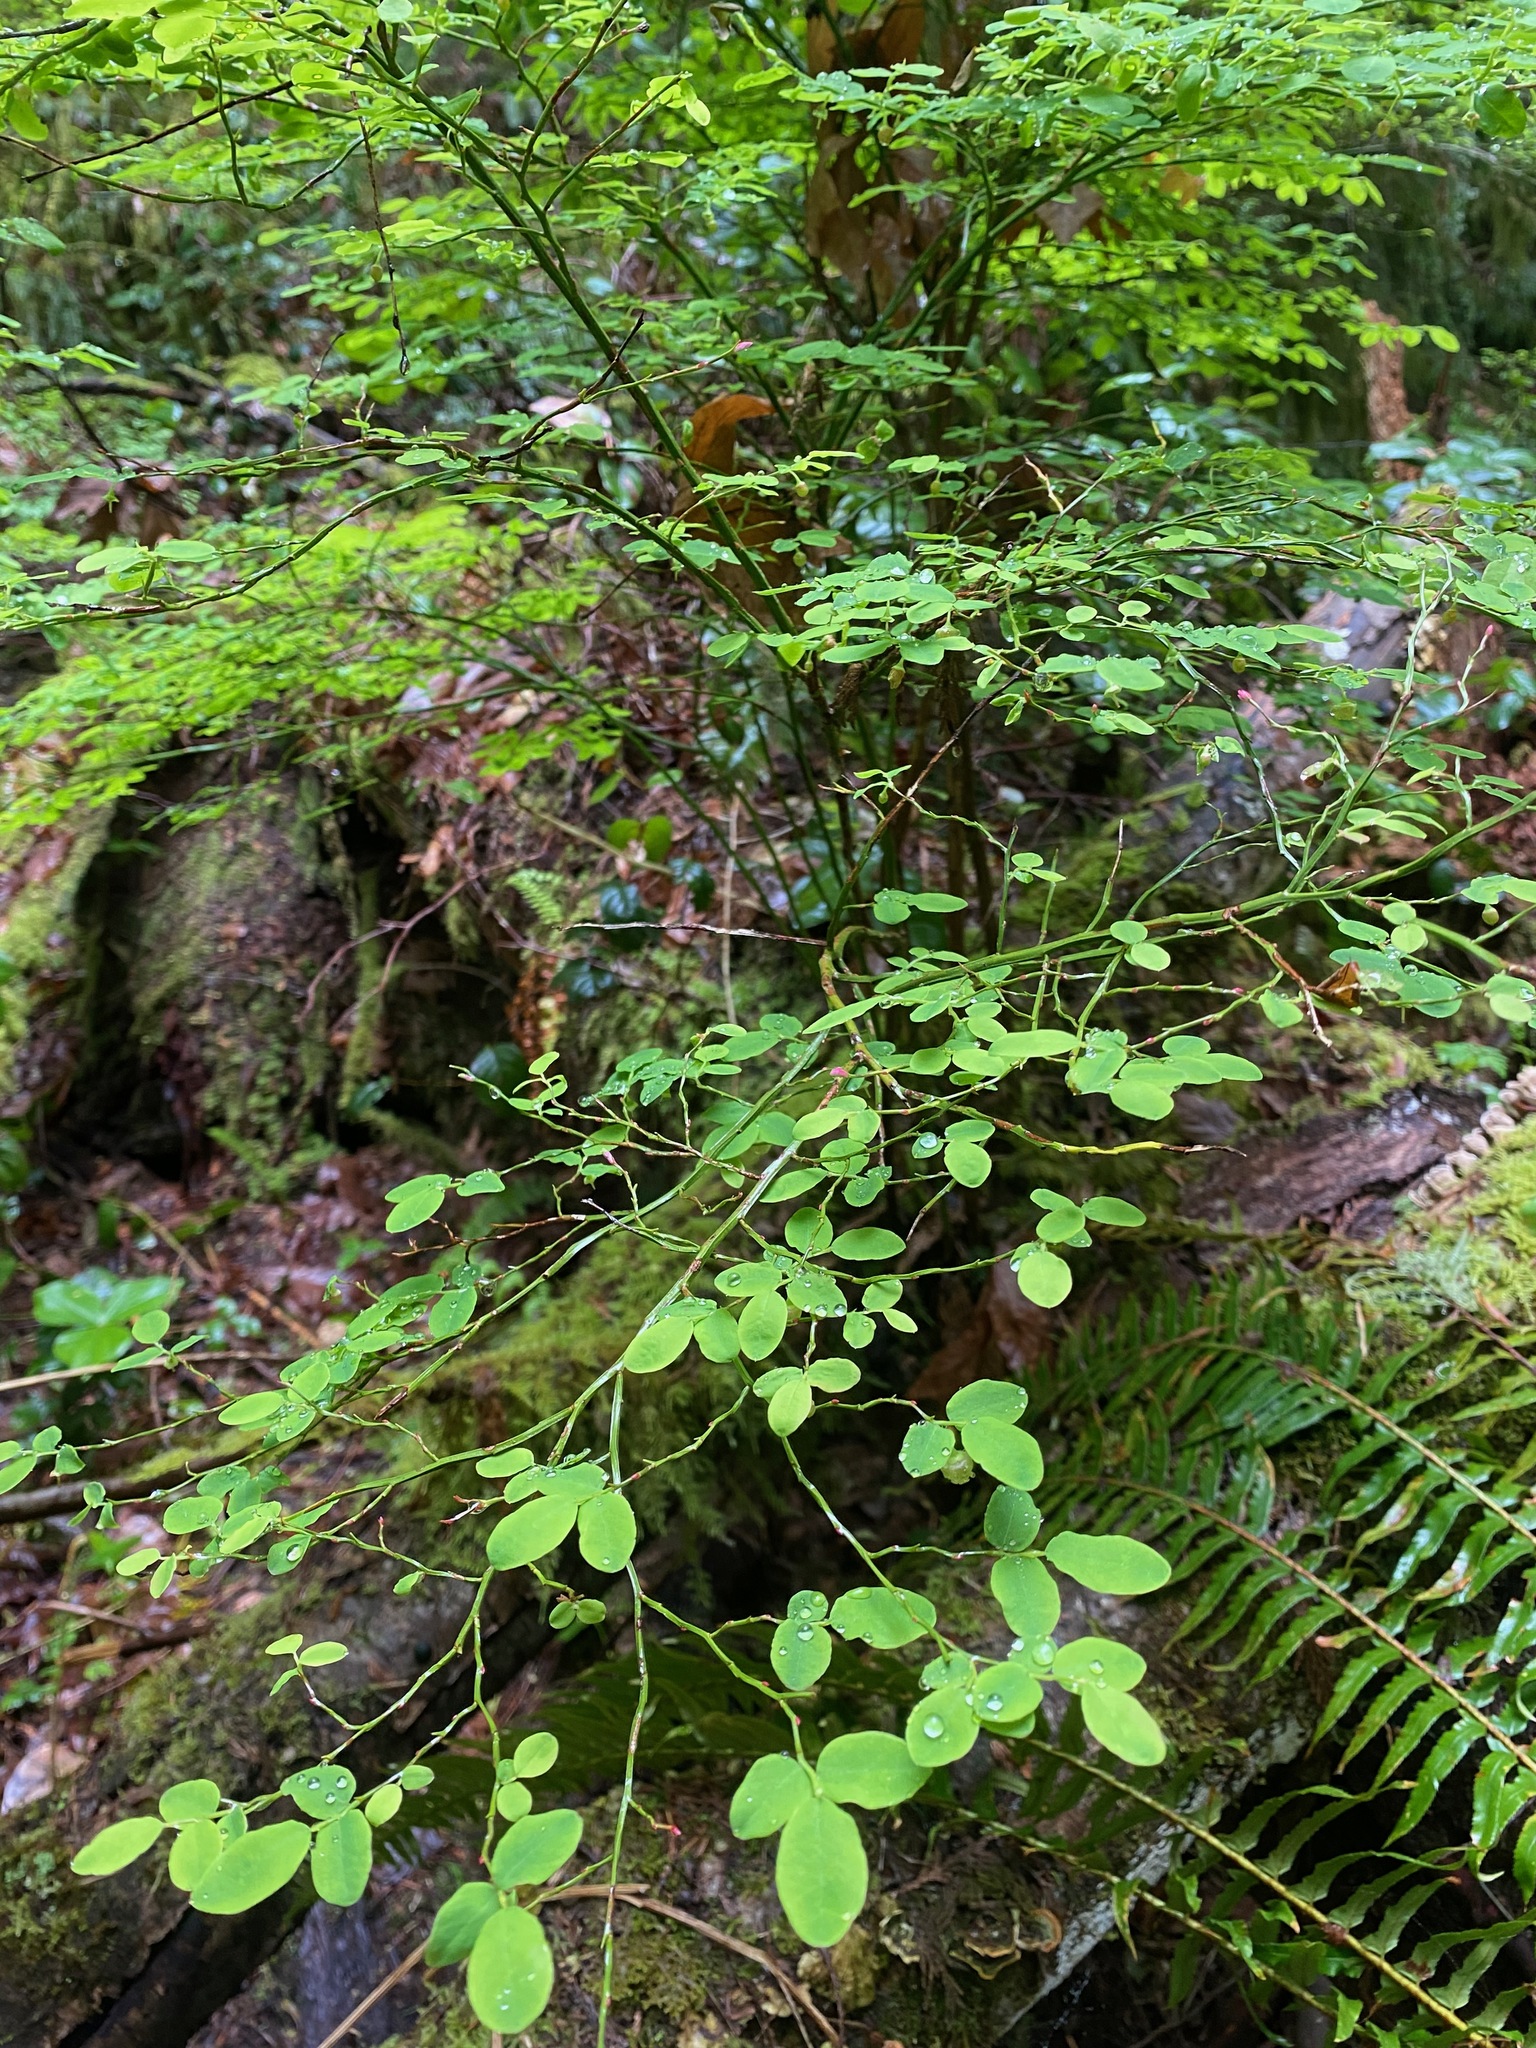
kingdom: Plantae
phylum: Tracheophyta
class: Magnoliopsida
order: Ericales
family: Ericaceae
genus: Vaccinium
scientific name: Vaccinium parvifolium
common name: Red-huckleberry
